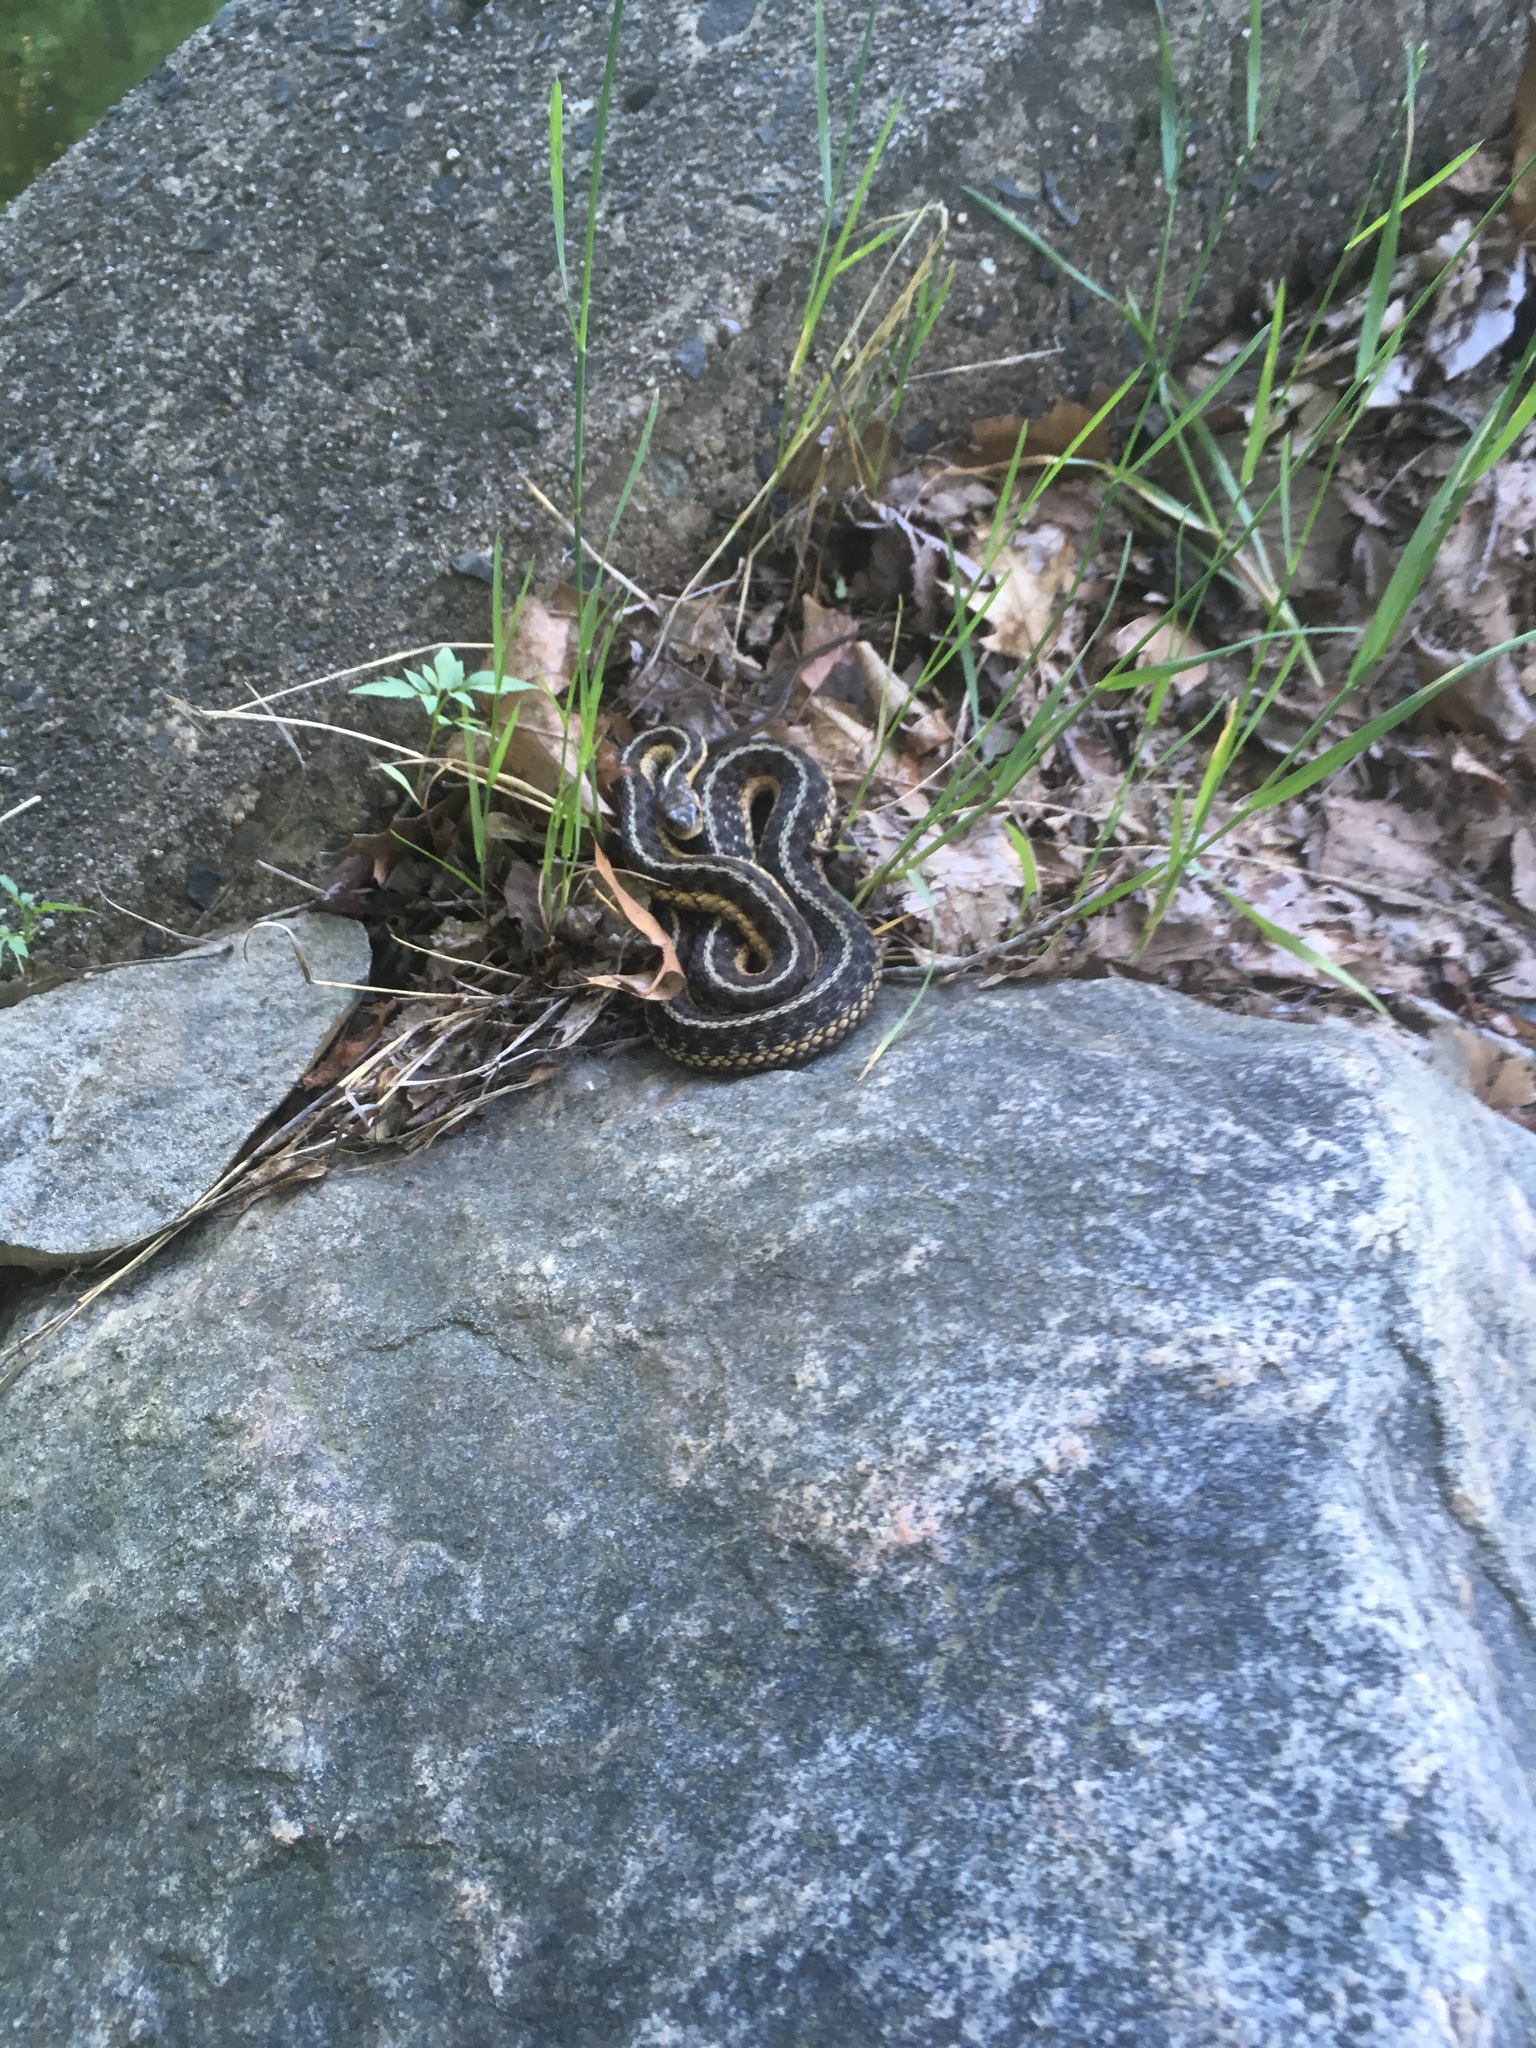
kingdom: Animalia
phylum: Chordata
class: Squamata
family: Colubridae
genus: Thamnophis
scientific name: Thamnophis sirtalis
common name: Common garter snake
